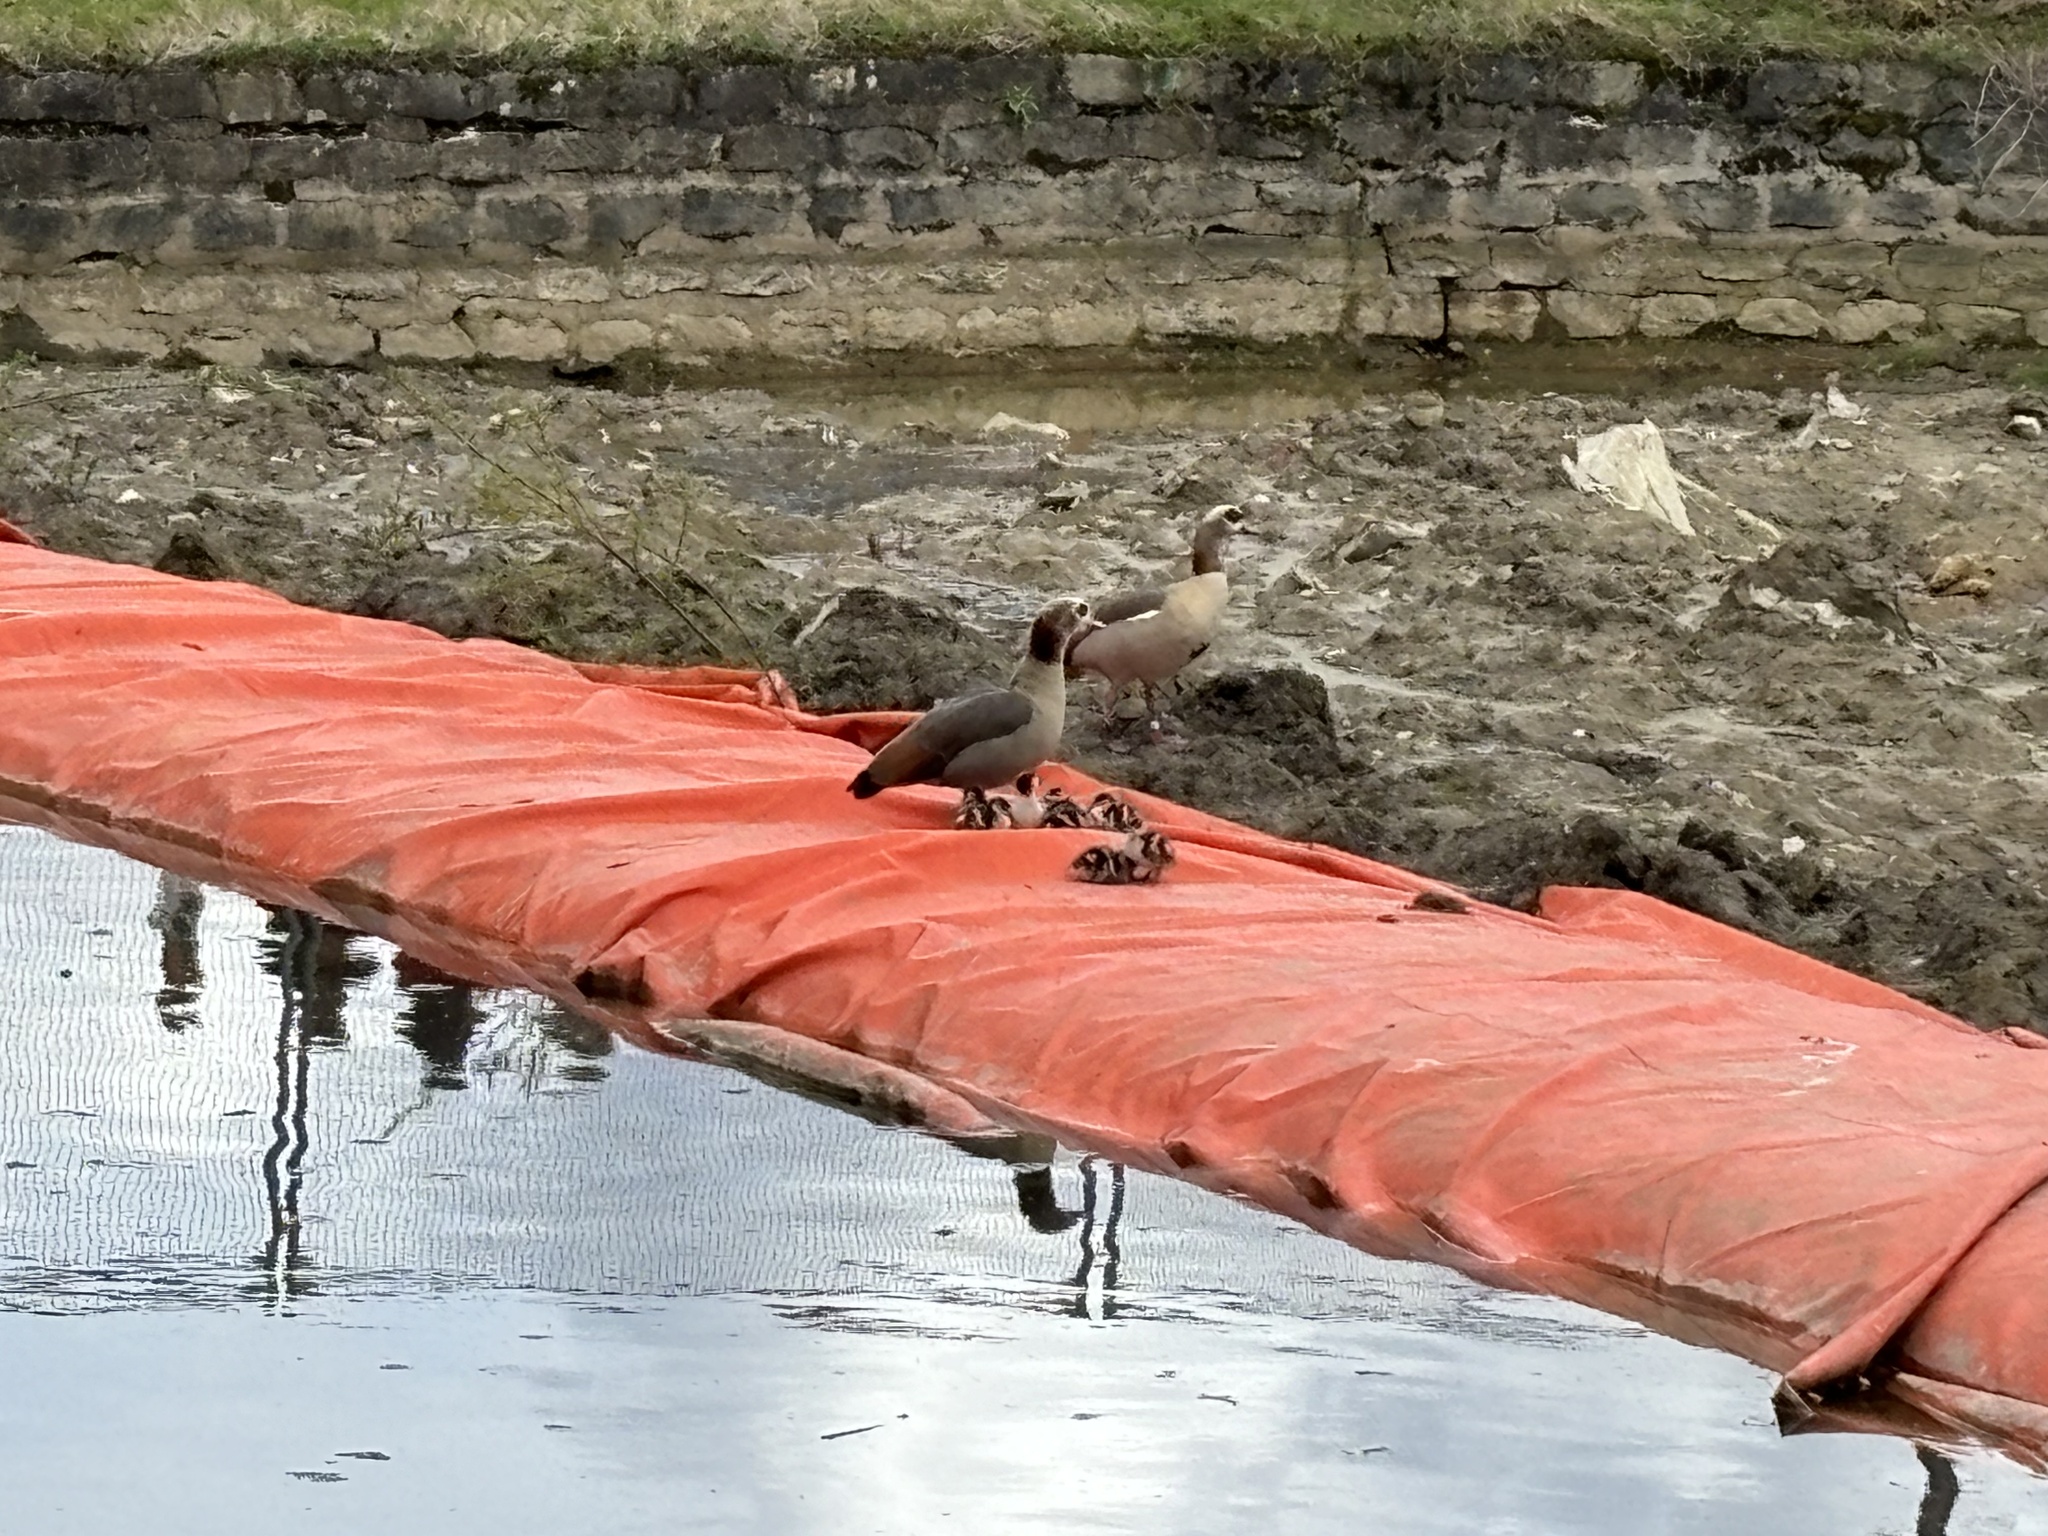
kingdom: Animalia
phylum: Chordata
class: Aves
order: Anseriformes
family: Anatidae
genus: Alopochen
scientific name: Alopochen aegyptiaca
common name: Egyptian goose
